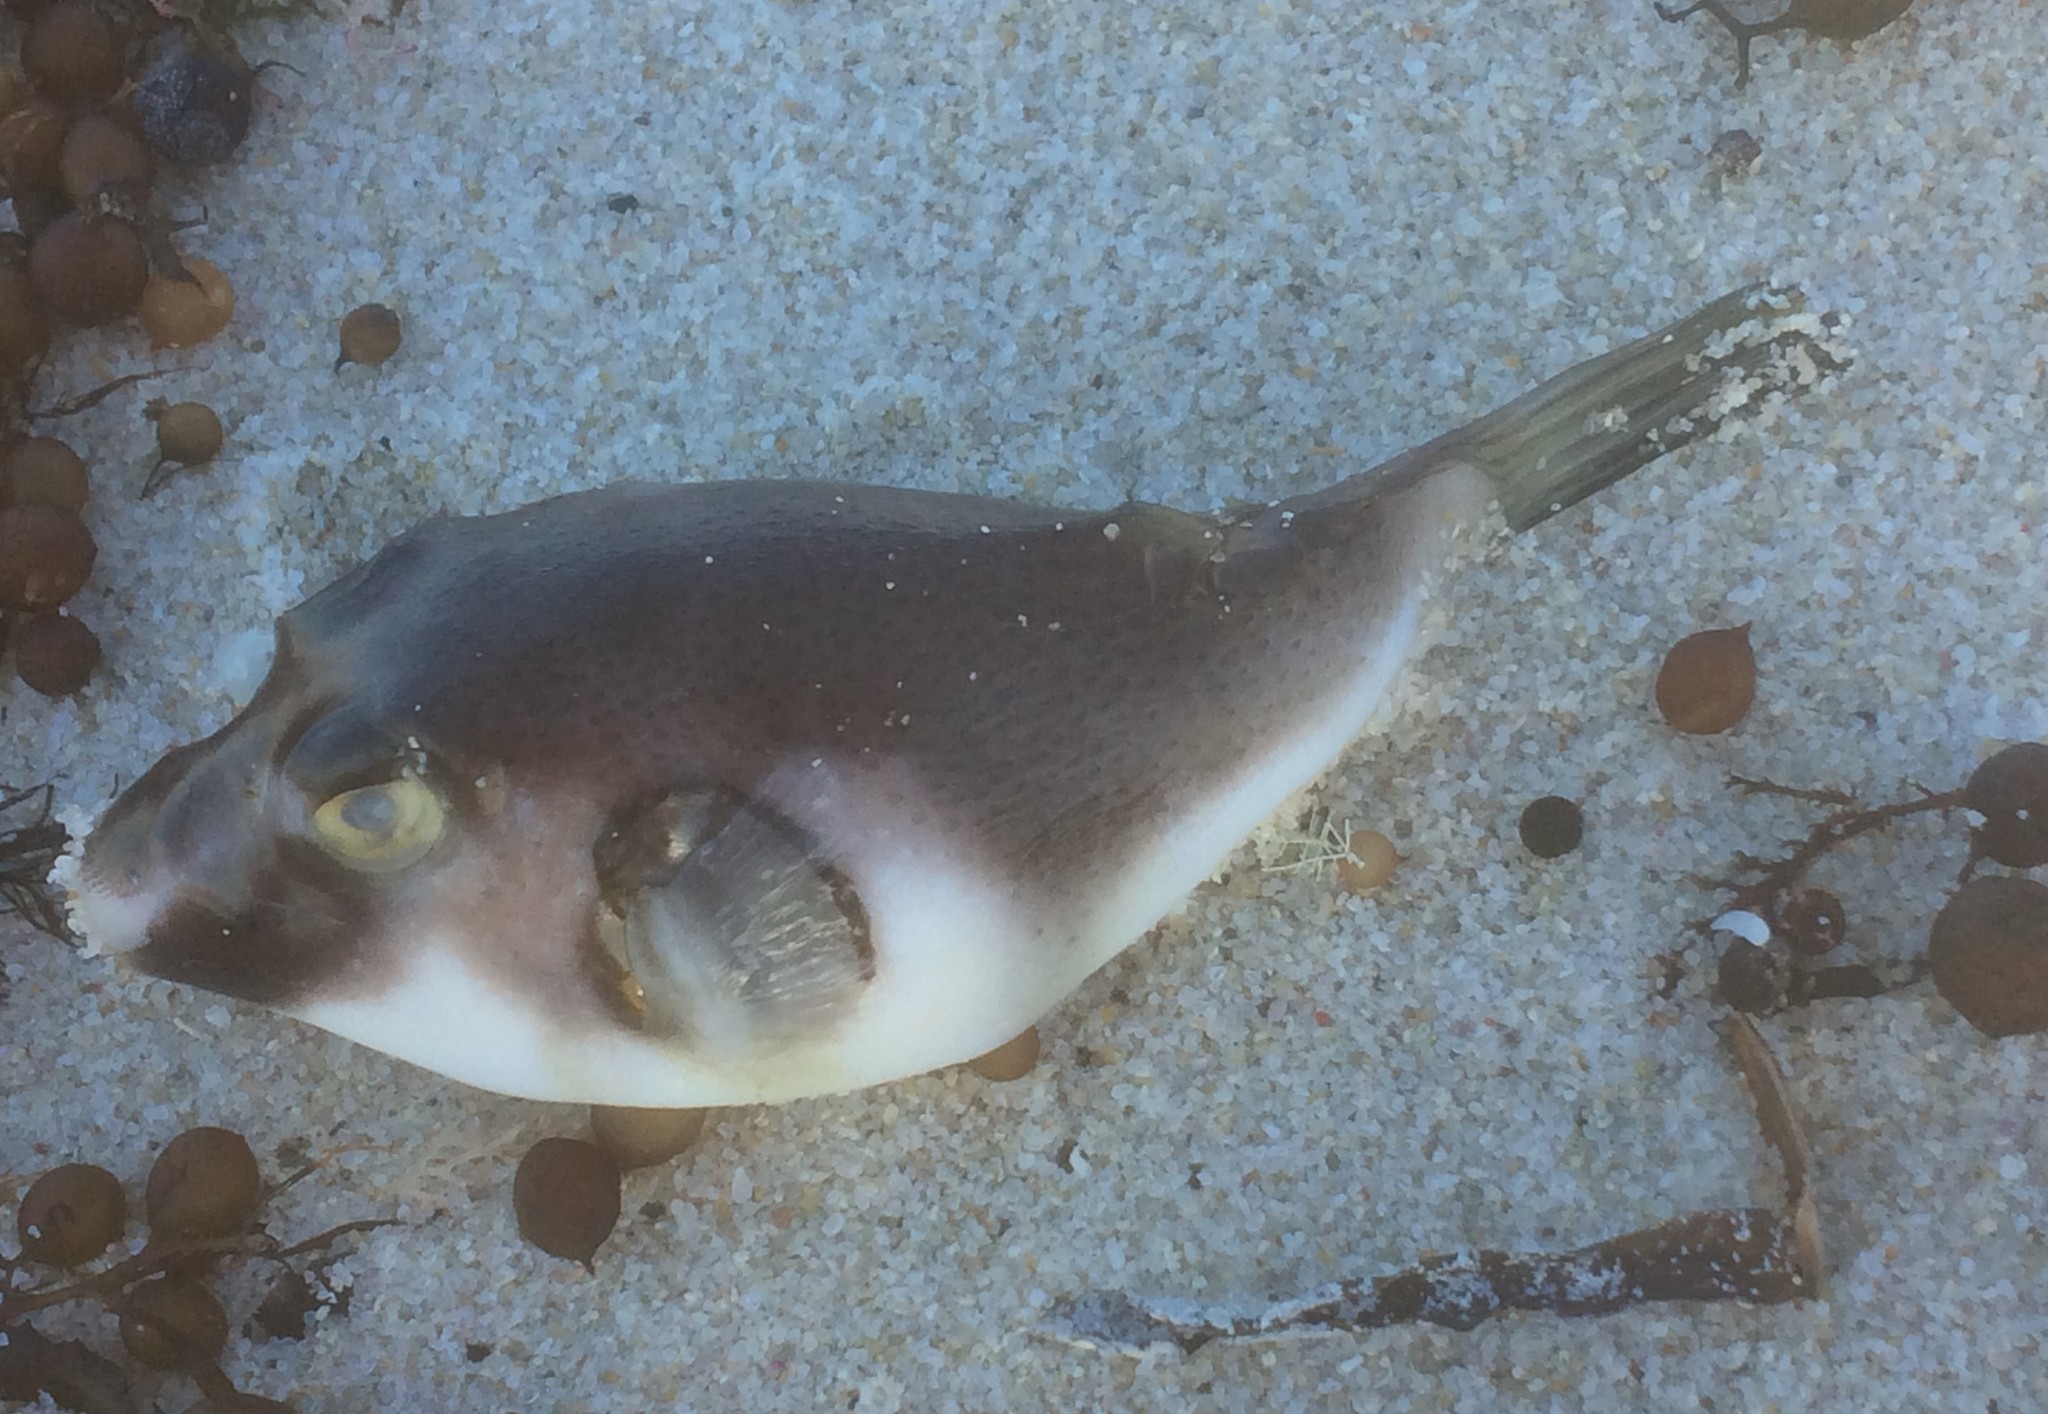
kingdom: Animalia
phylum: Chordata
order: Tetraodontiformes
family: Tetraodontidae
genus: Omegophora
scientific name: Omegophora armilla
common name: Ringed pufferfish
